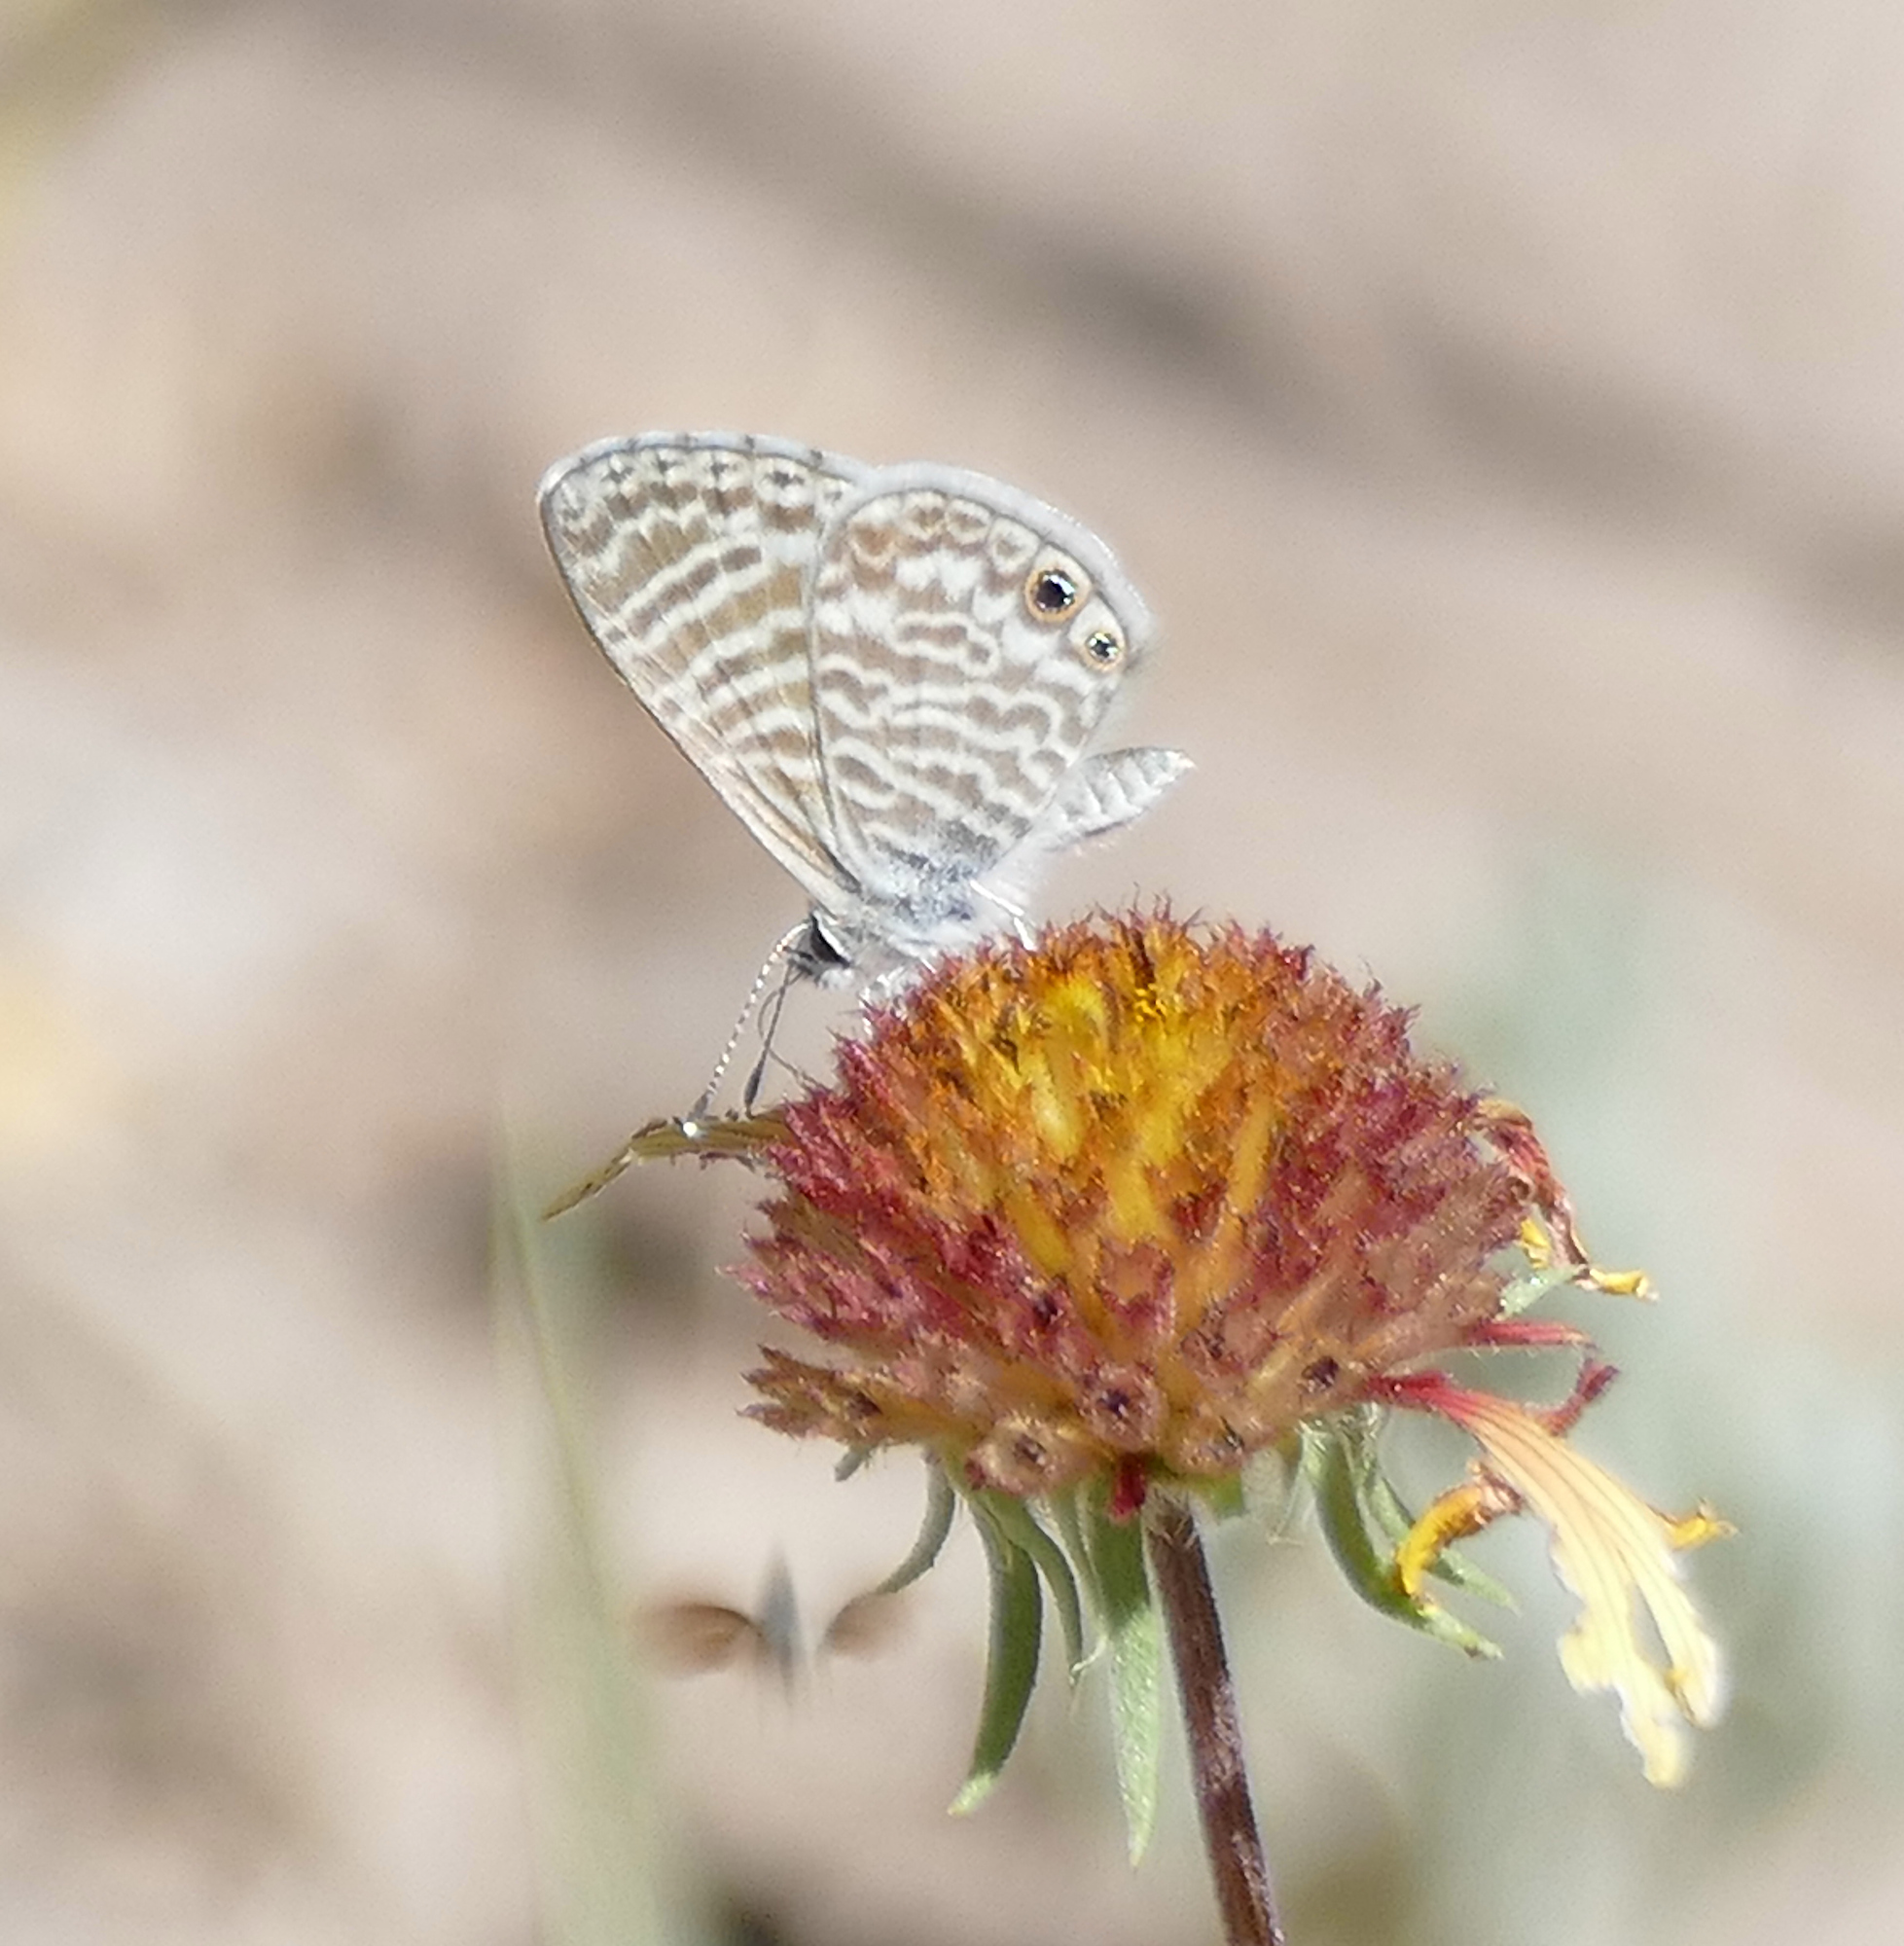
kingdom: Animalia
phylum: Arthropoda
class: Insecta
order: Lepidoptera
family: Lycaenidae
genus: Leptotes
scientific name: Leptotes marina
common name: Marine blue
